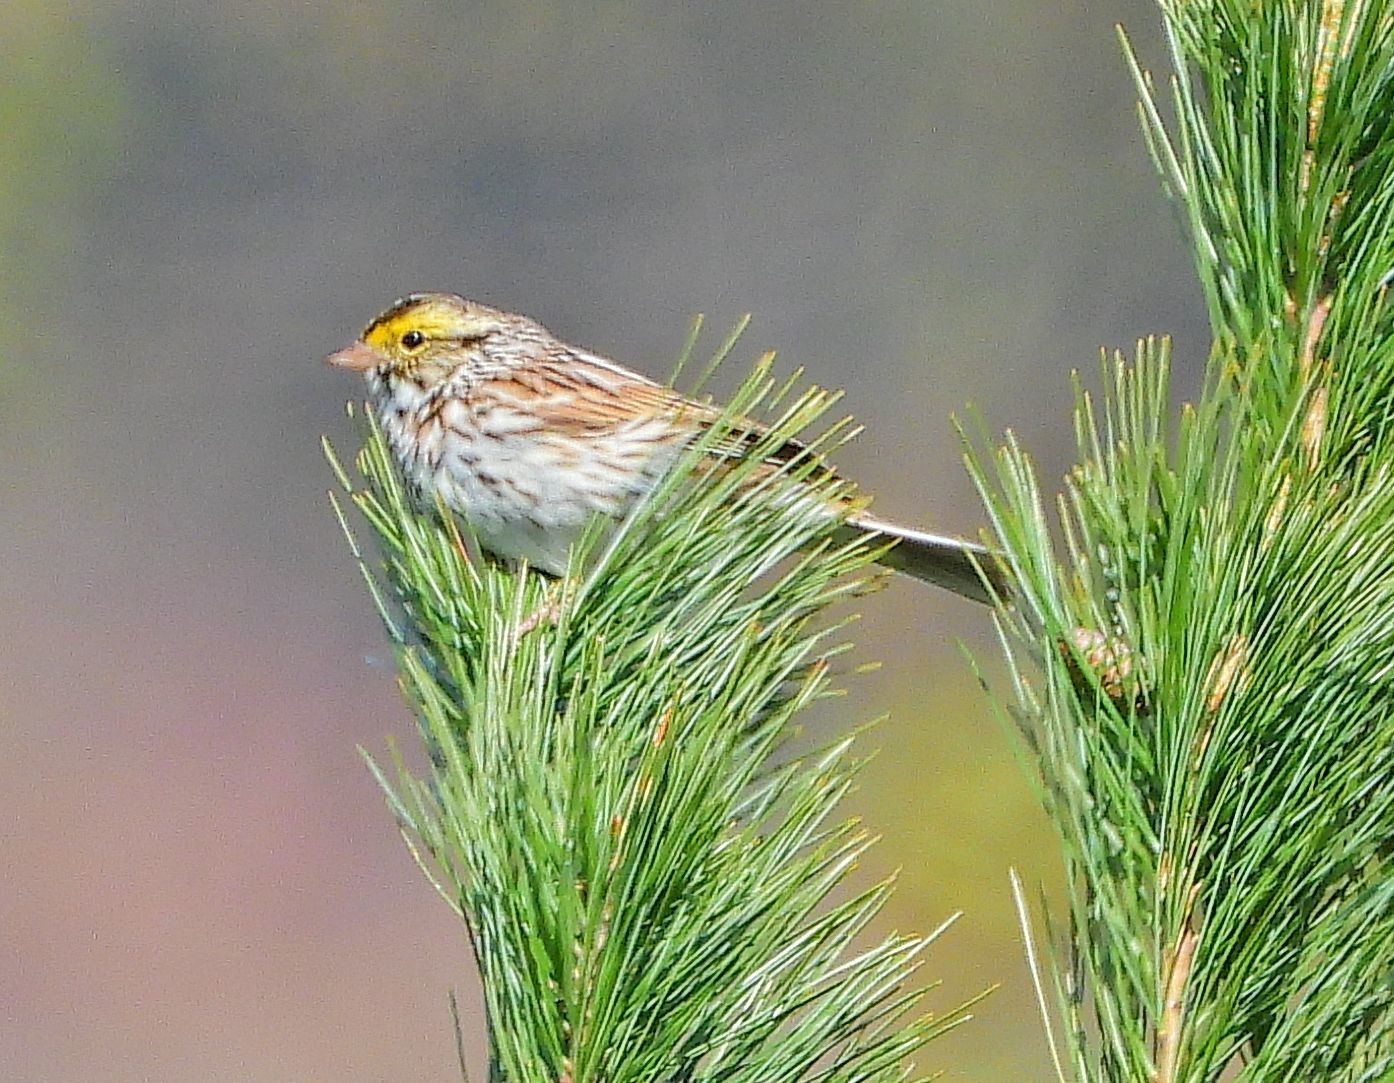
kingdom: Animalia
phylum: Chordata
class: Aves
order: Passeriformes
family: Passerellidae
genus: Passerculus
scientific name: Passerculus sandwichensis
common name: Savannah sparrow
